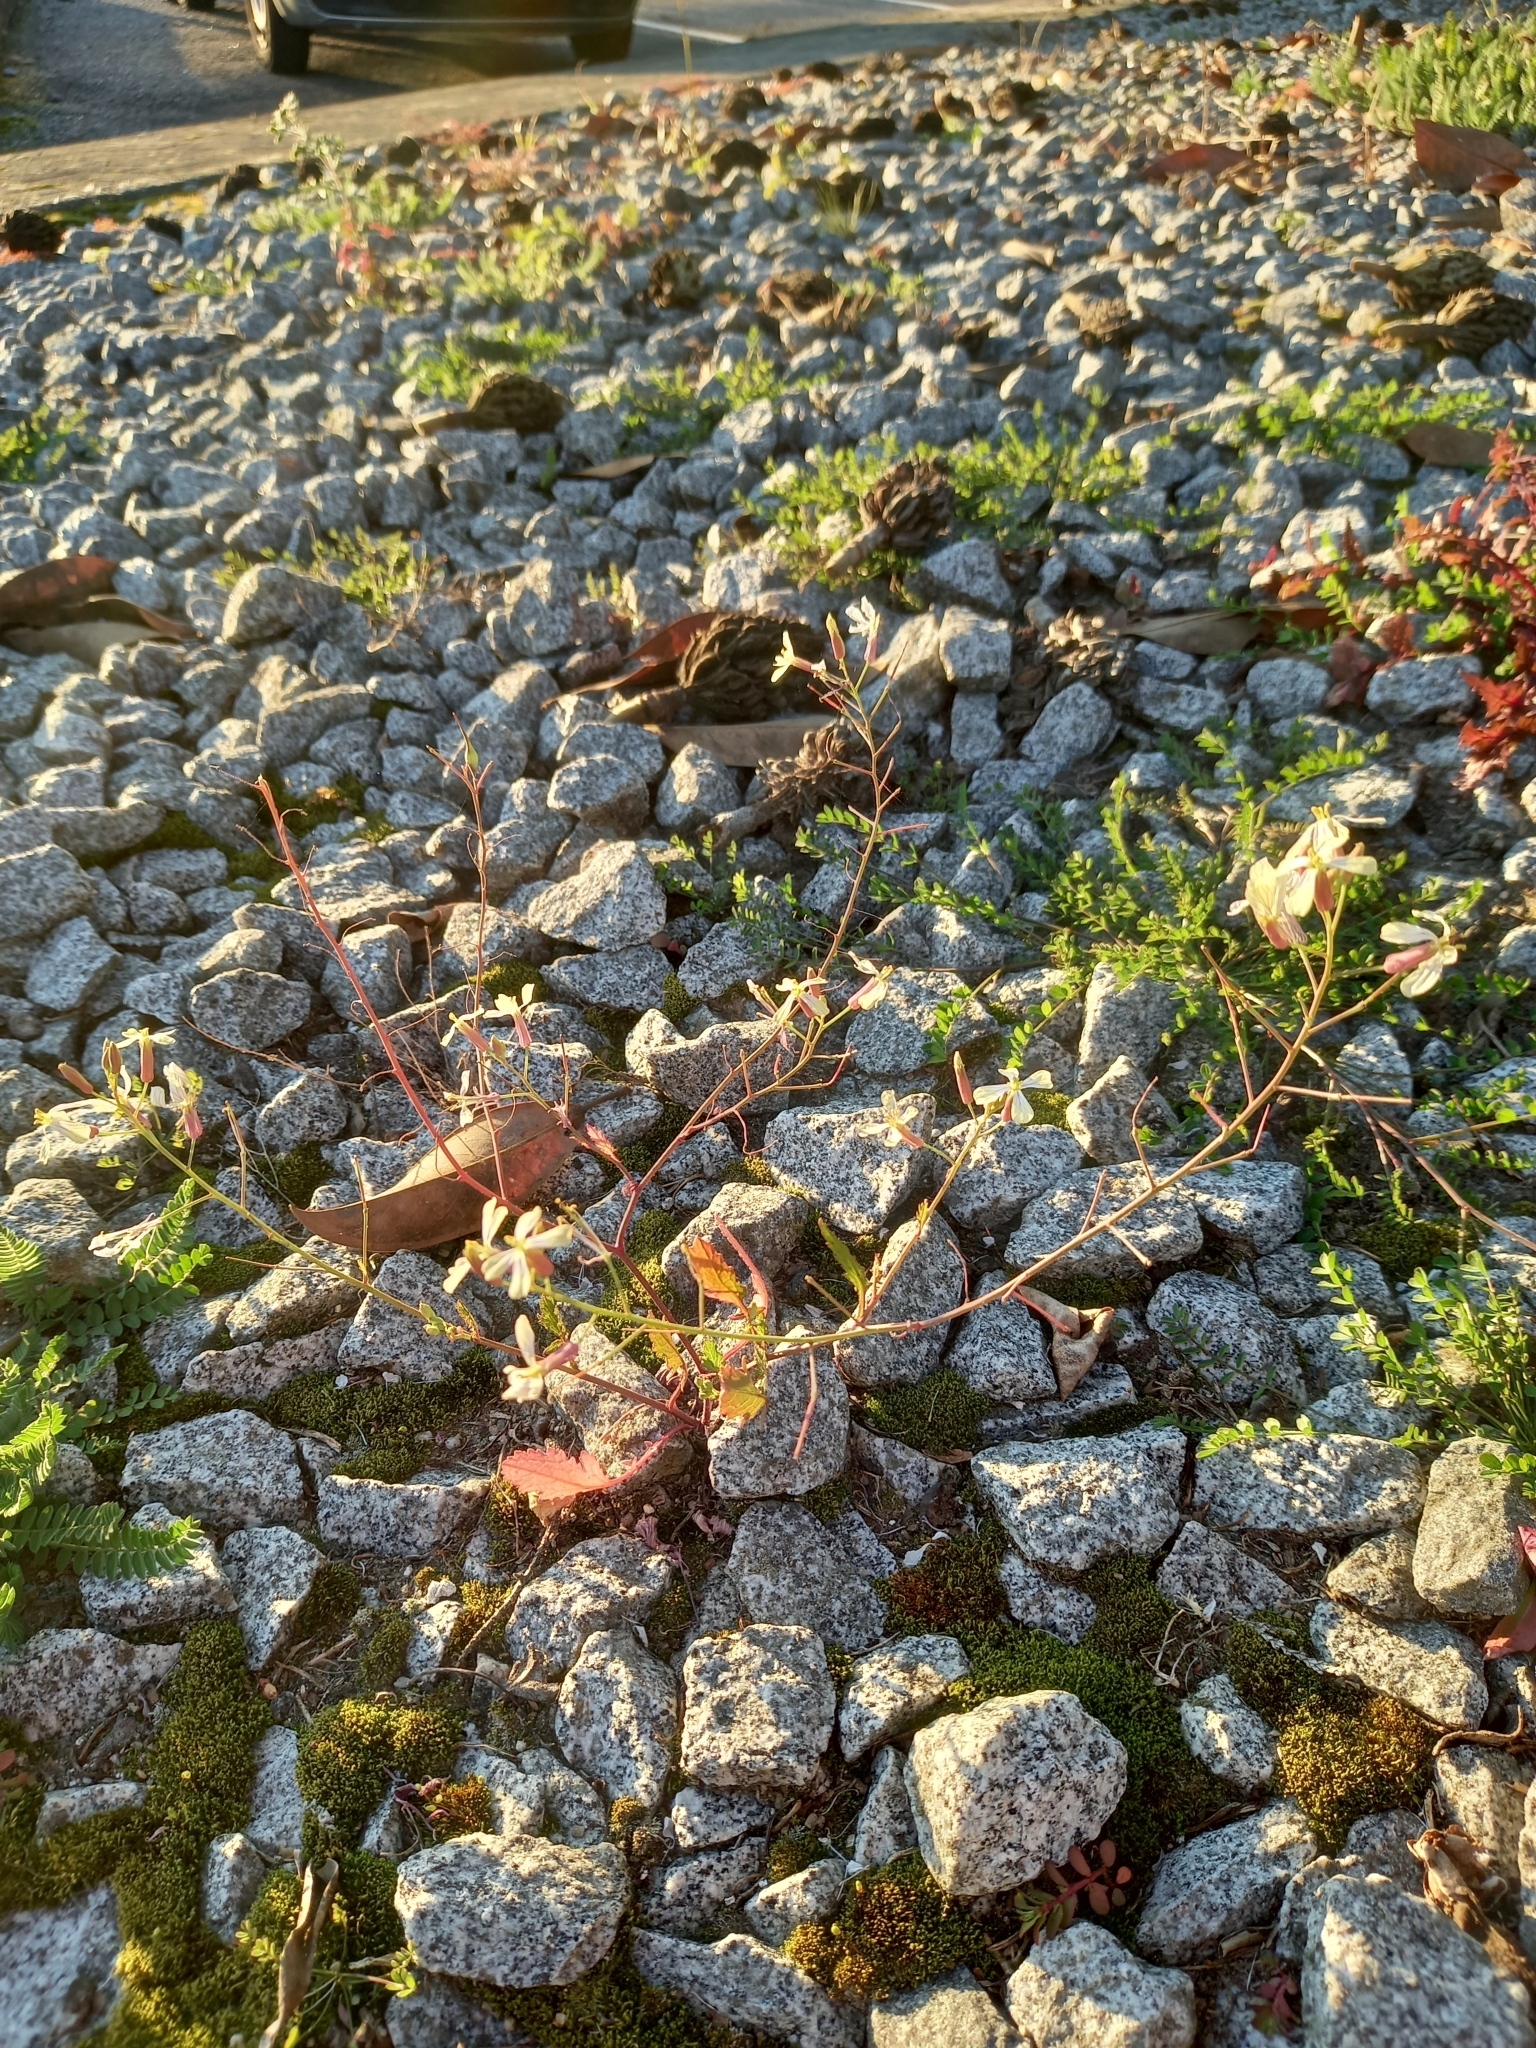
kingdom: Plantae
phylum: Tracheophyta
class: Magnoliopsida
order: Brassicales
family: Brassicaceae
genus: Raphanus
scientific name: Raphanus raphanistrum
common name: Wild radish
